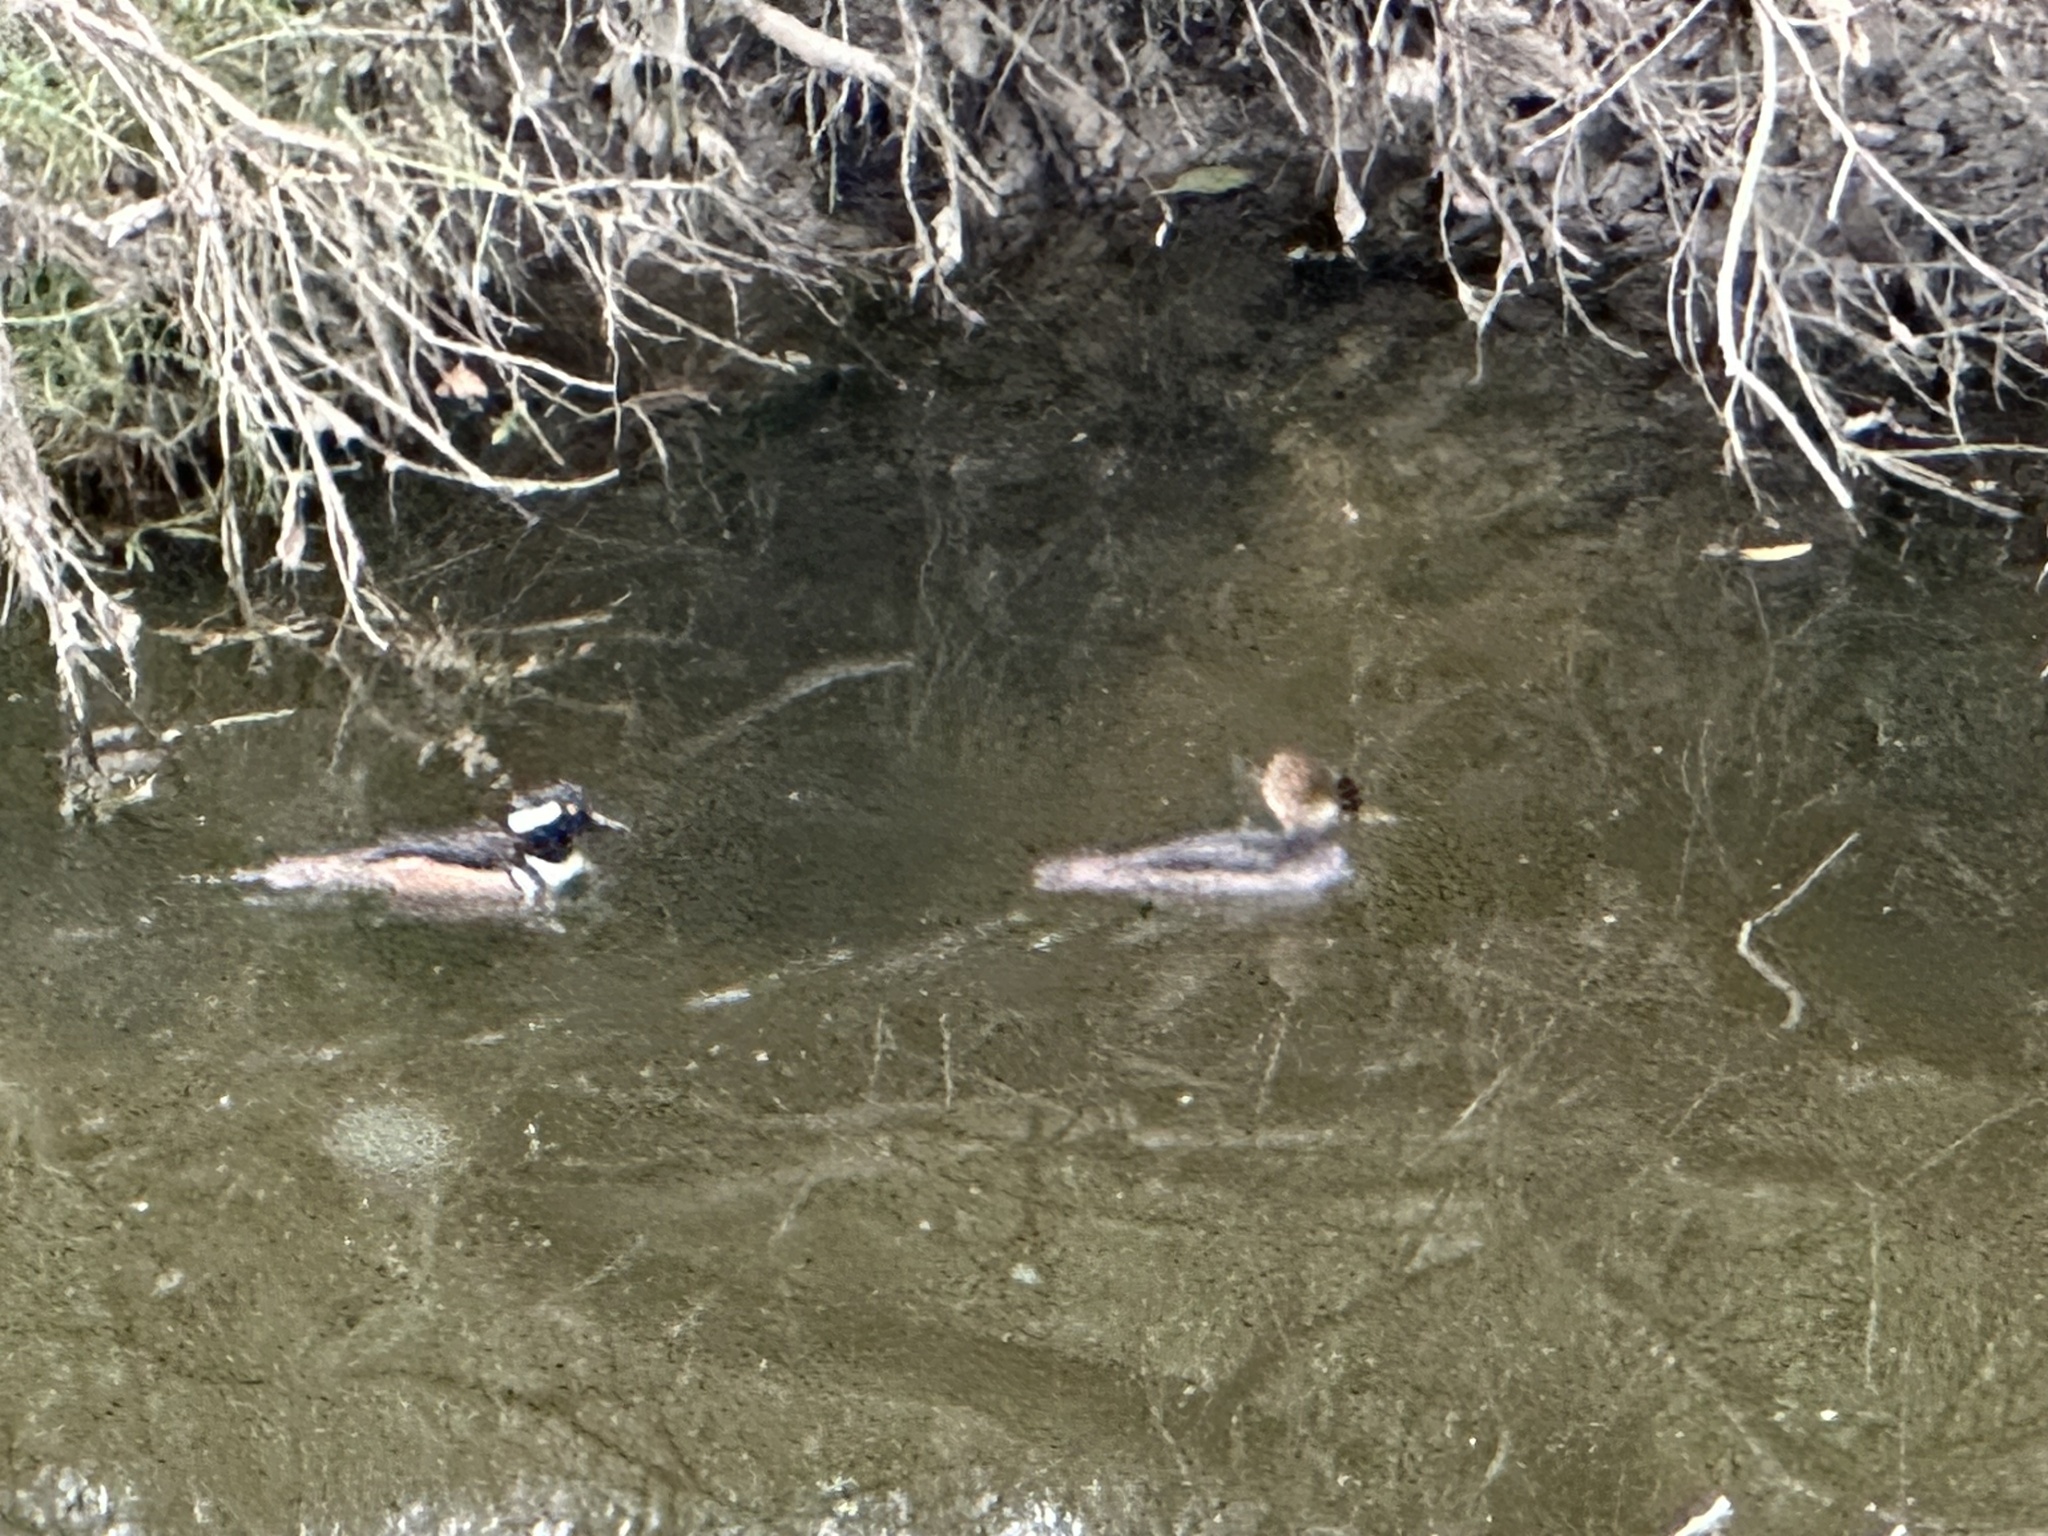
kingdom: Animalia
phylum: Chordata
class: Aves
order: Anseriformes
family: Anatidae
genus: Lophodytes
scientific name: Lophodytes cucullatus
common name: Hooded merganser
